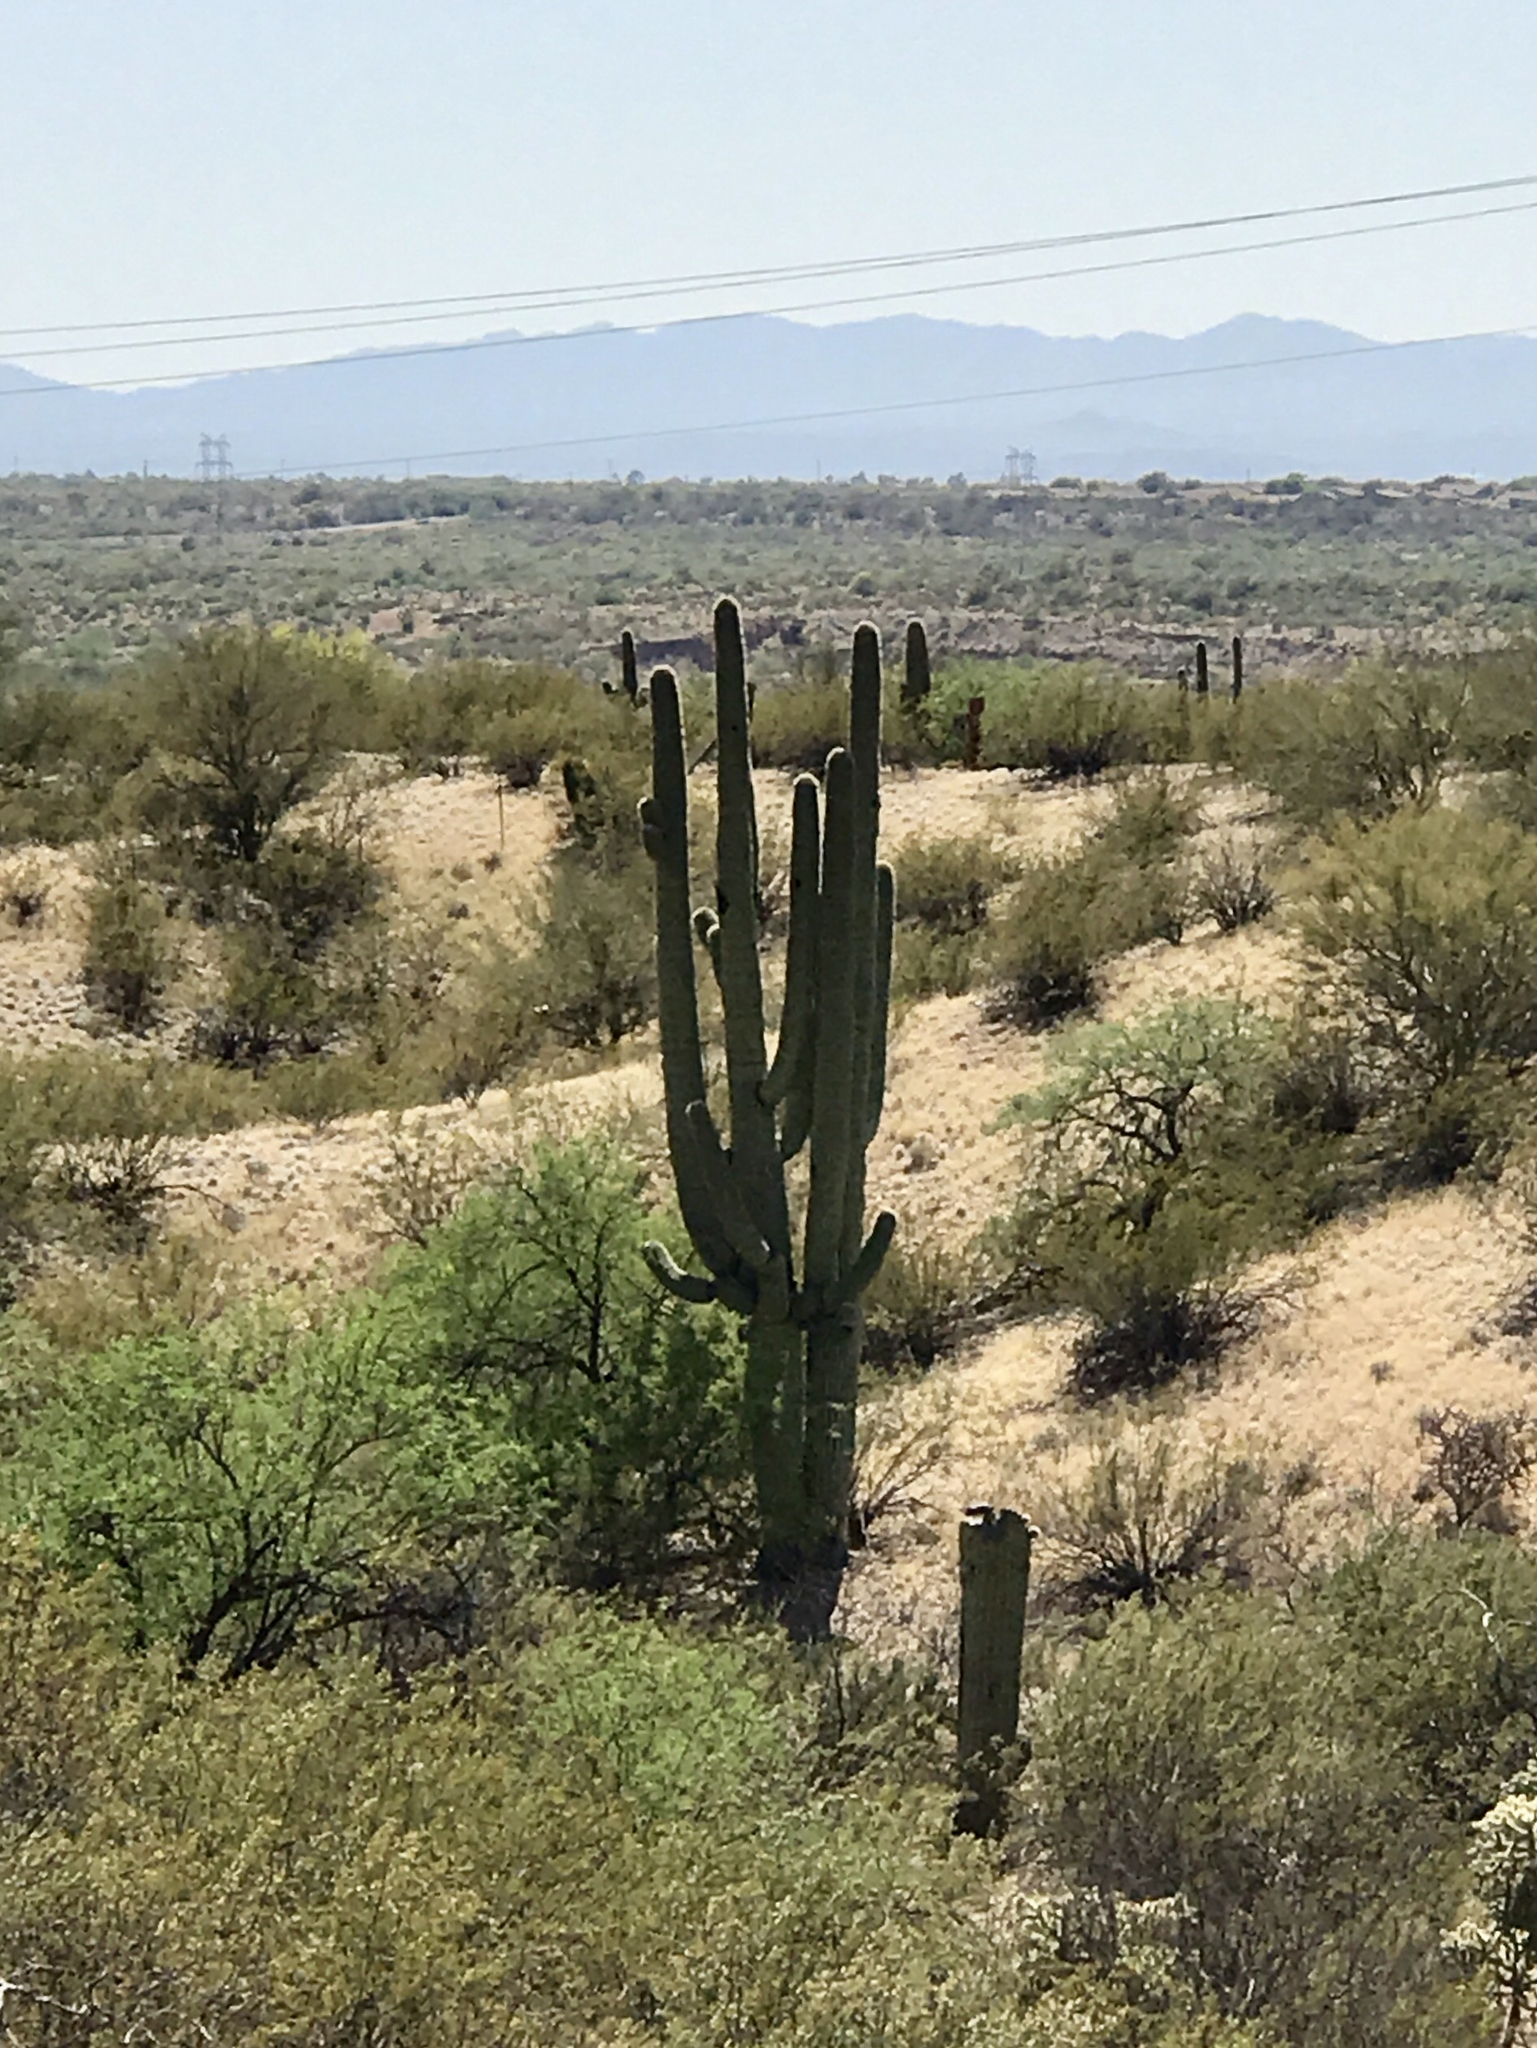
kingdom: Plantae
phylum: Tracheophyta
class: Magnoliopsida
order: Caryophyllales
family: Cactaceae
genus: Carnegiea
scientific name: Carnegiea gigantea
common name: Saguaro
